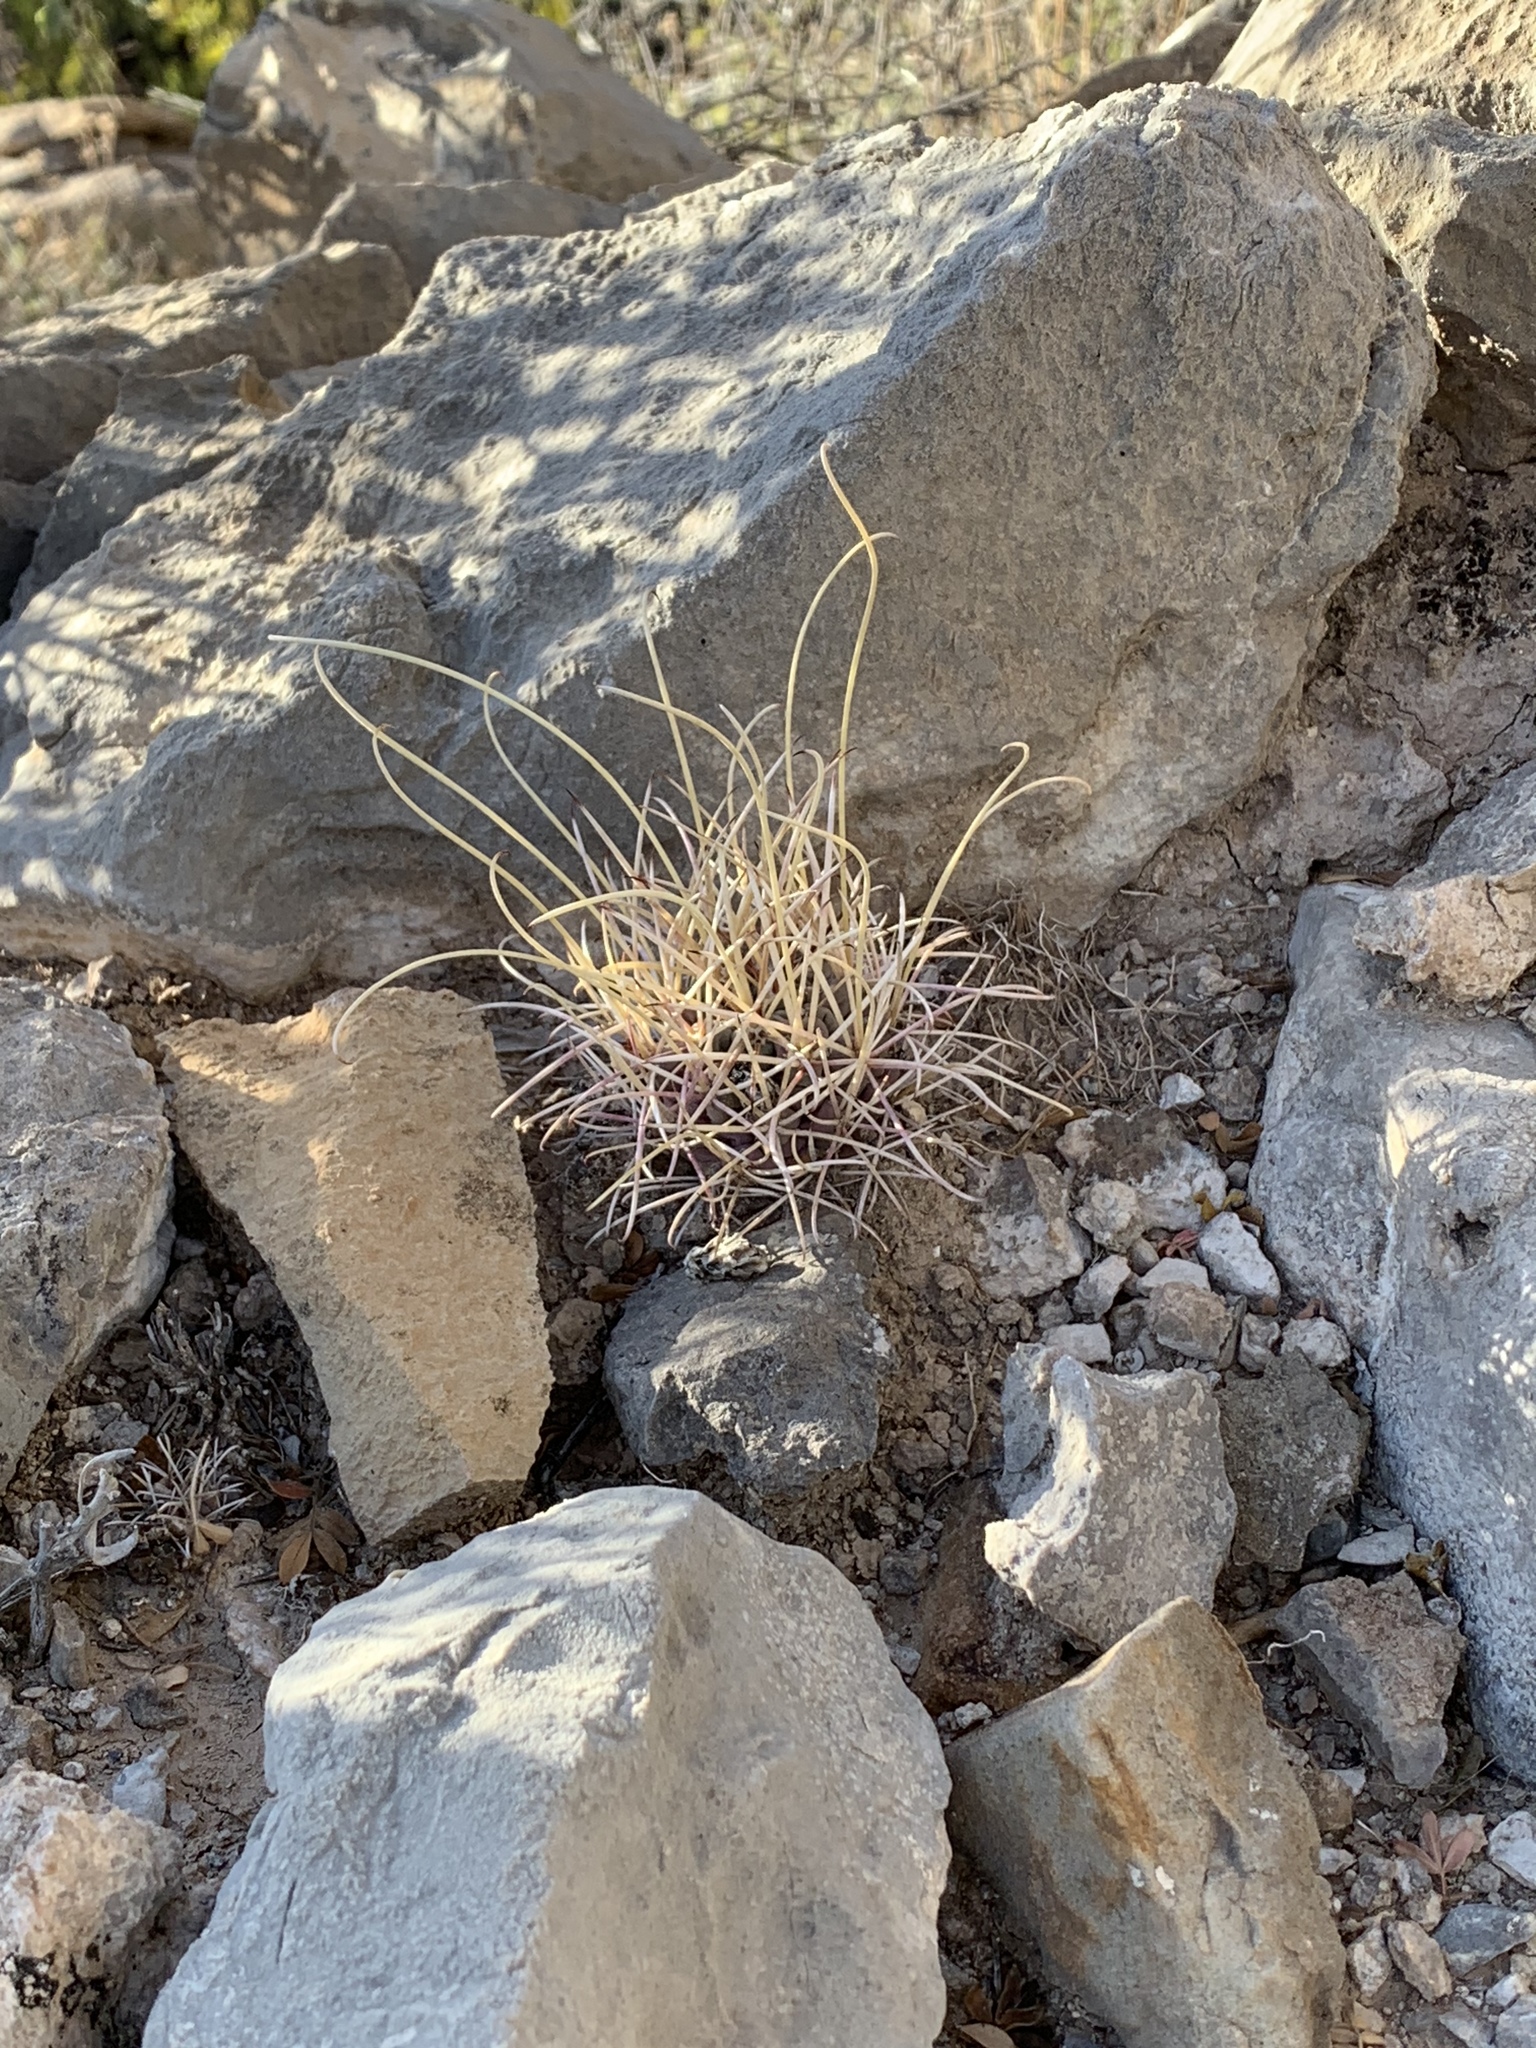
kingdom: Plantae
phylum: Tracheophyta
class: Magnoliopsida
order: Caryophyllales
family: Cactaceae
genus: Ferocactus
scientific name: Ferocactus uncinatus
